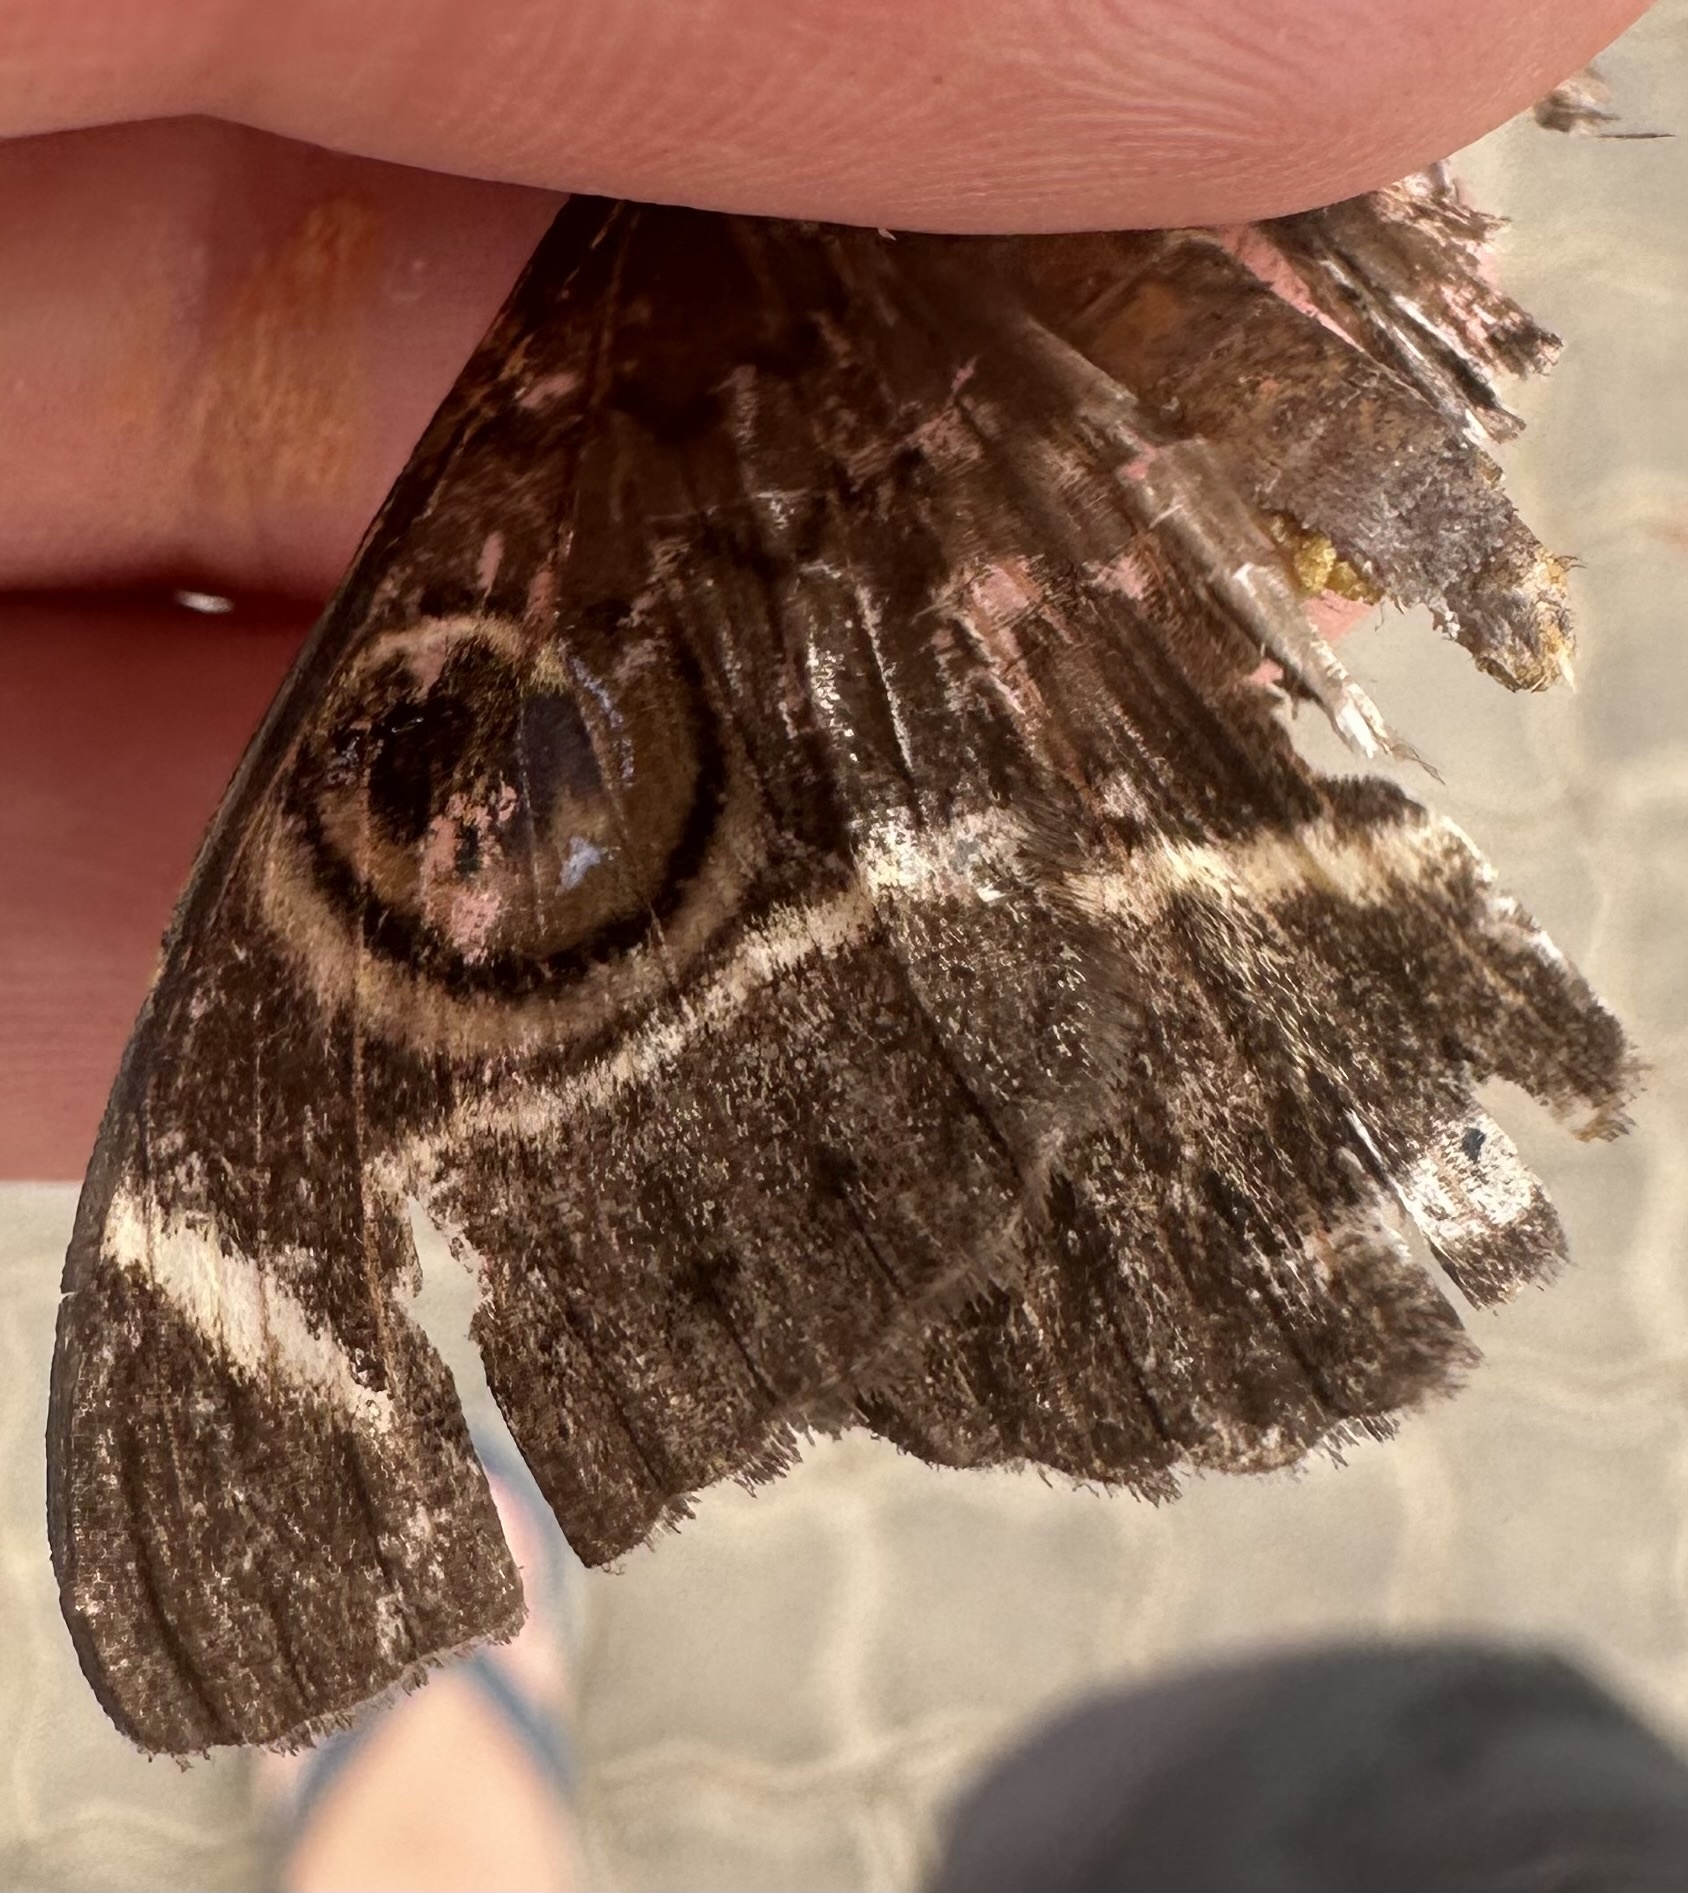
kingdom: Animalia
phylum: Arthropoda
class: Insecta
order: Lepidoptera
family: Erebidae
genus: Cyligramma
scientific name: Cyligramma latona
